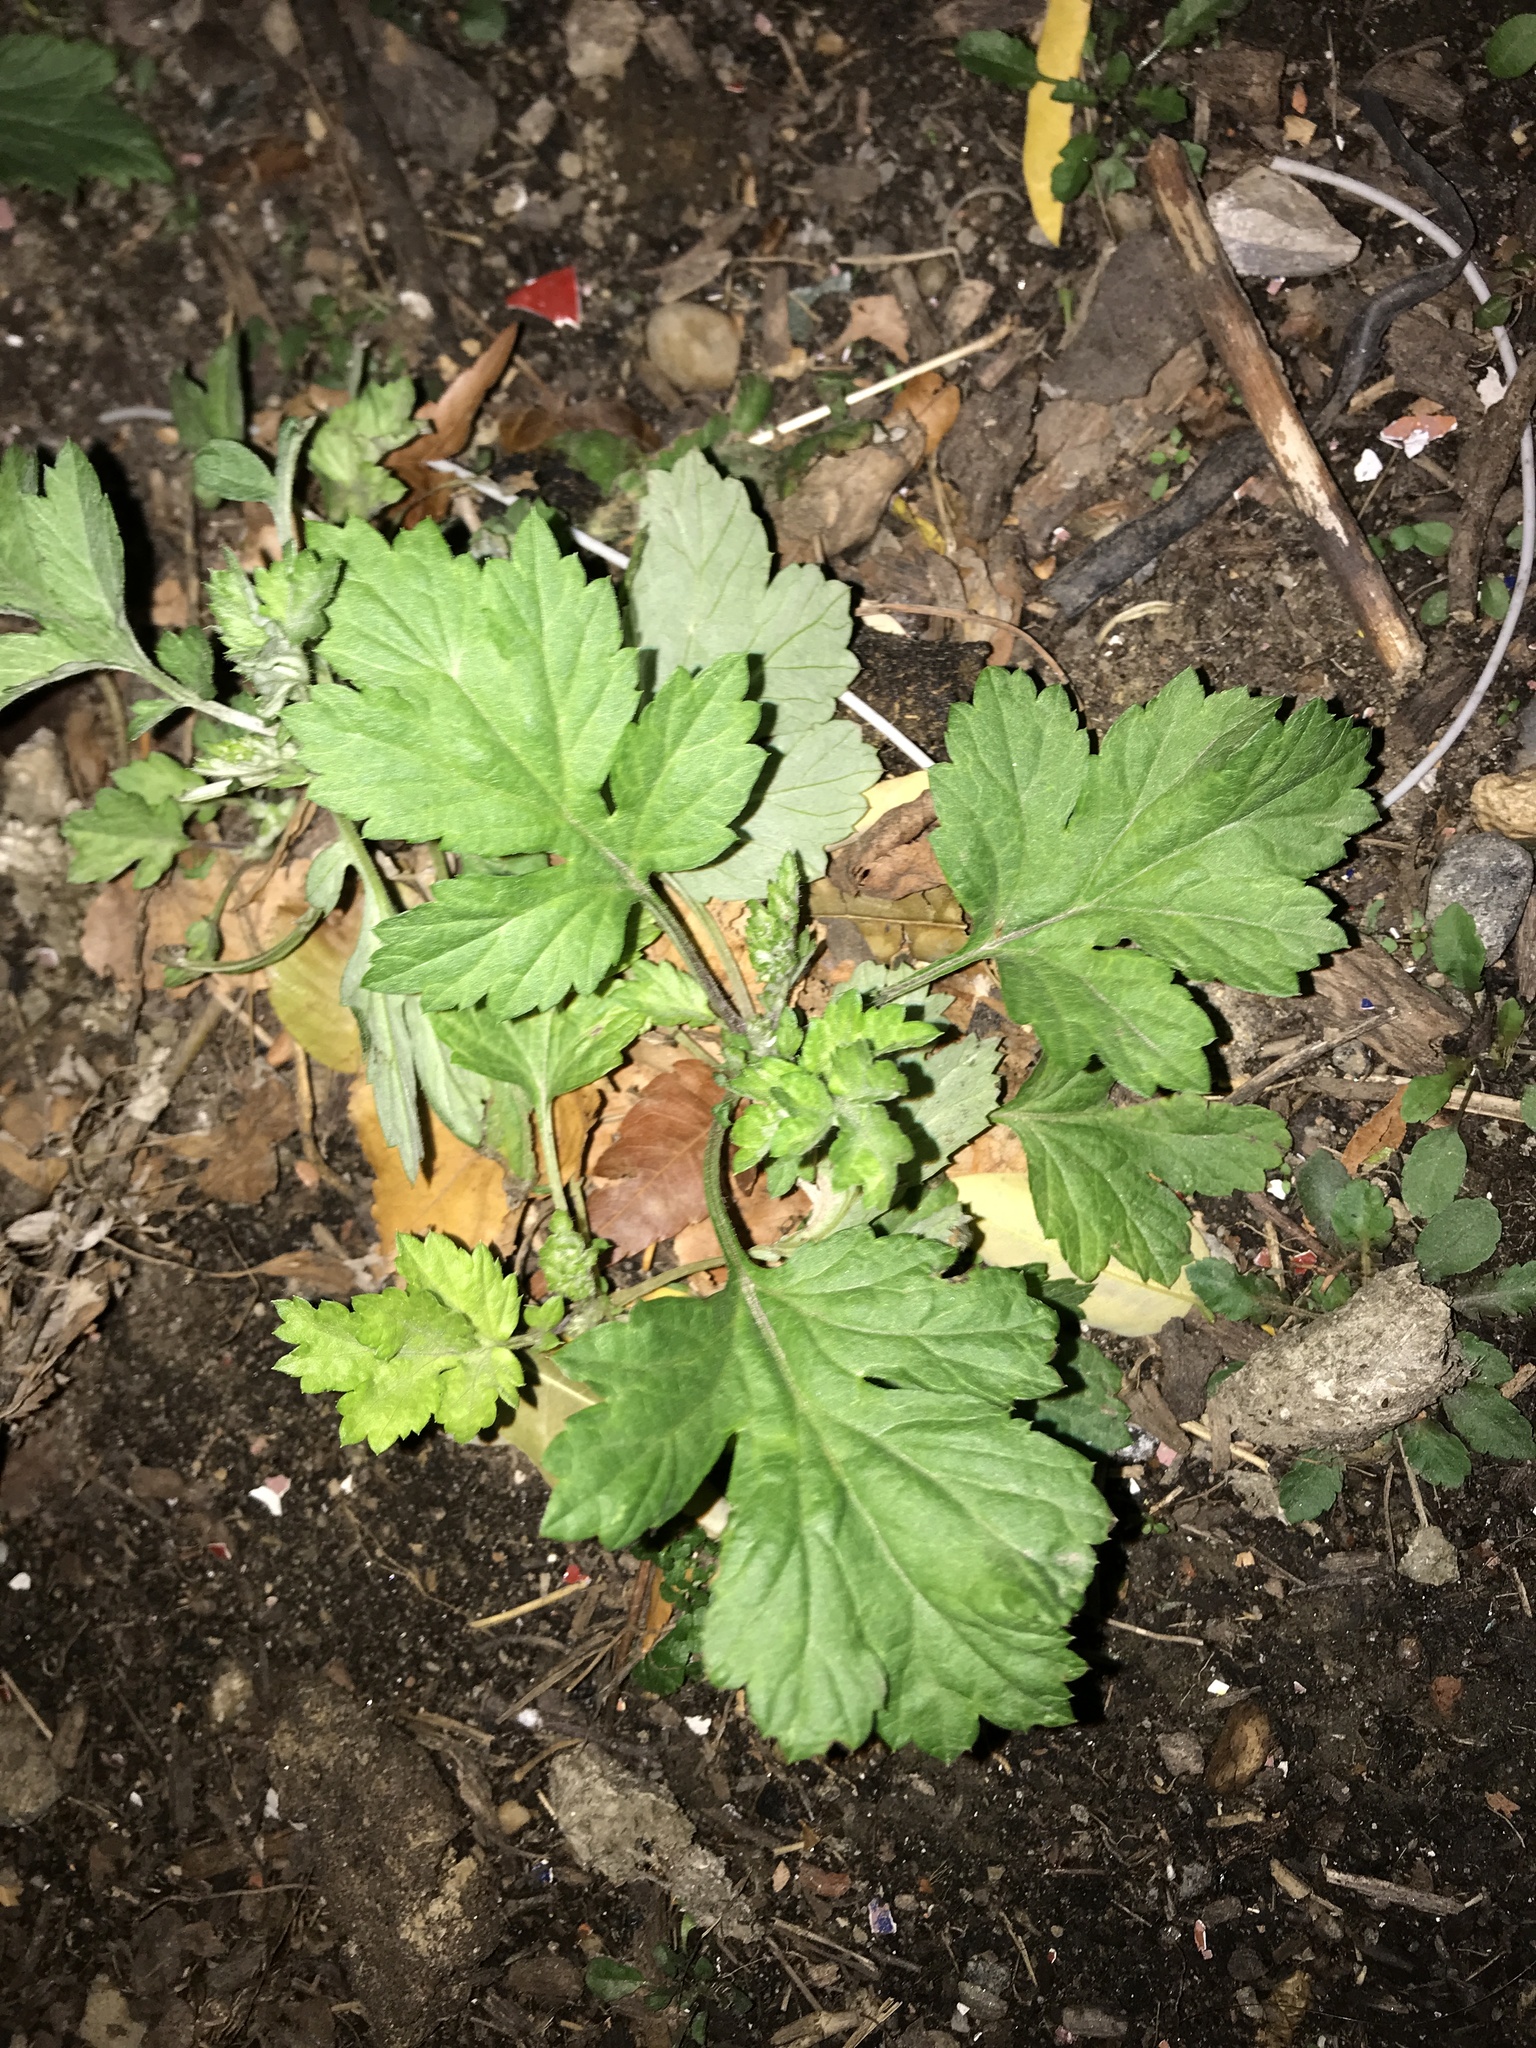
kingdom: Plantae
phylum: Tracheophyta
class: Magnoliopsida
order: Asterales
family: Asteraceae
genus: Artemisia
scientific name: Artemisia vulgaris
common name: Mugwort
